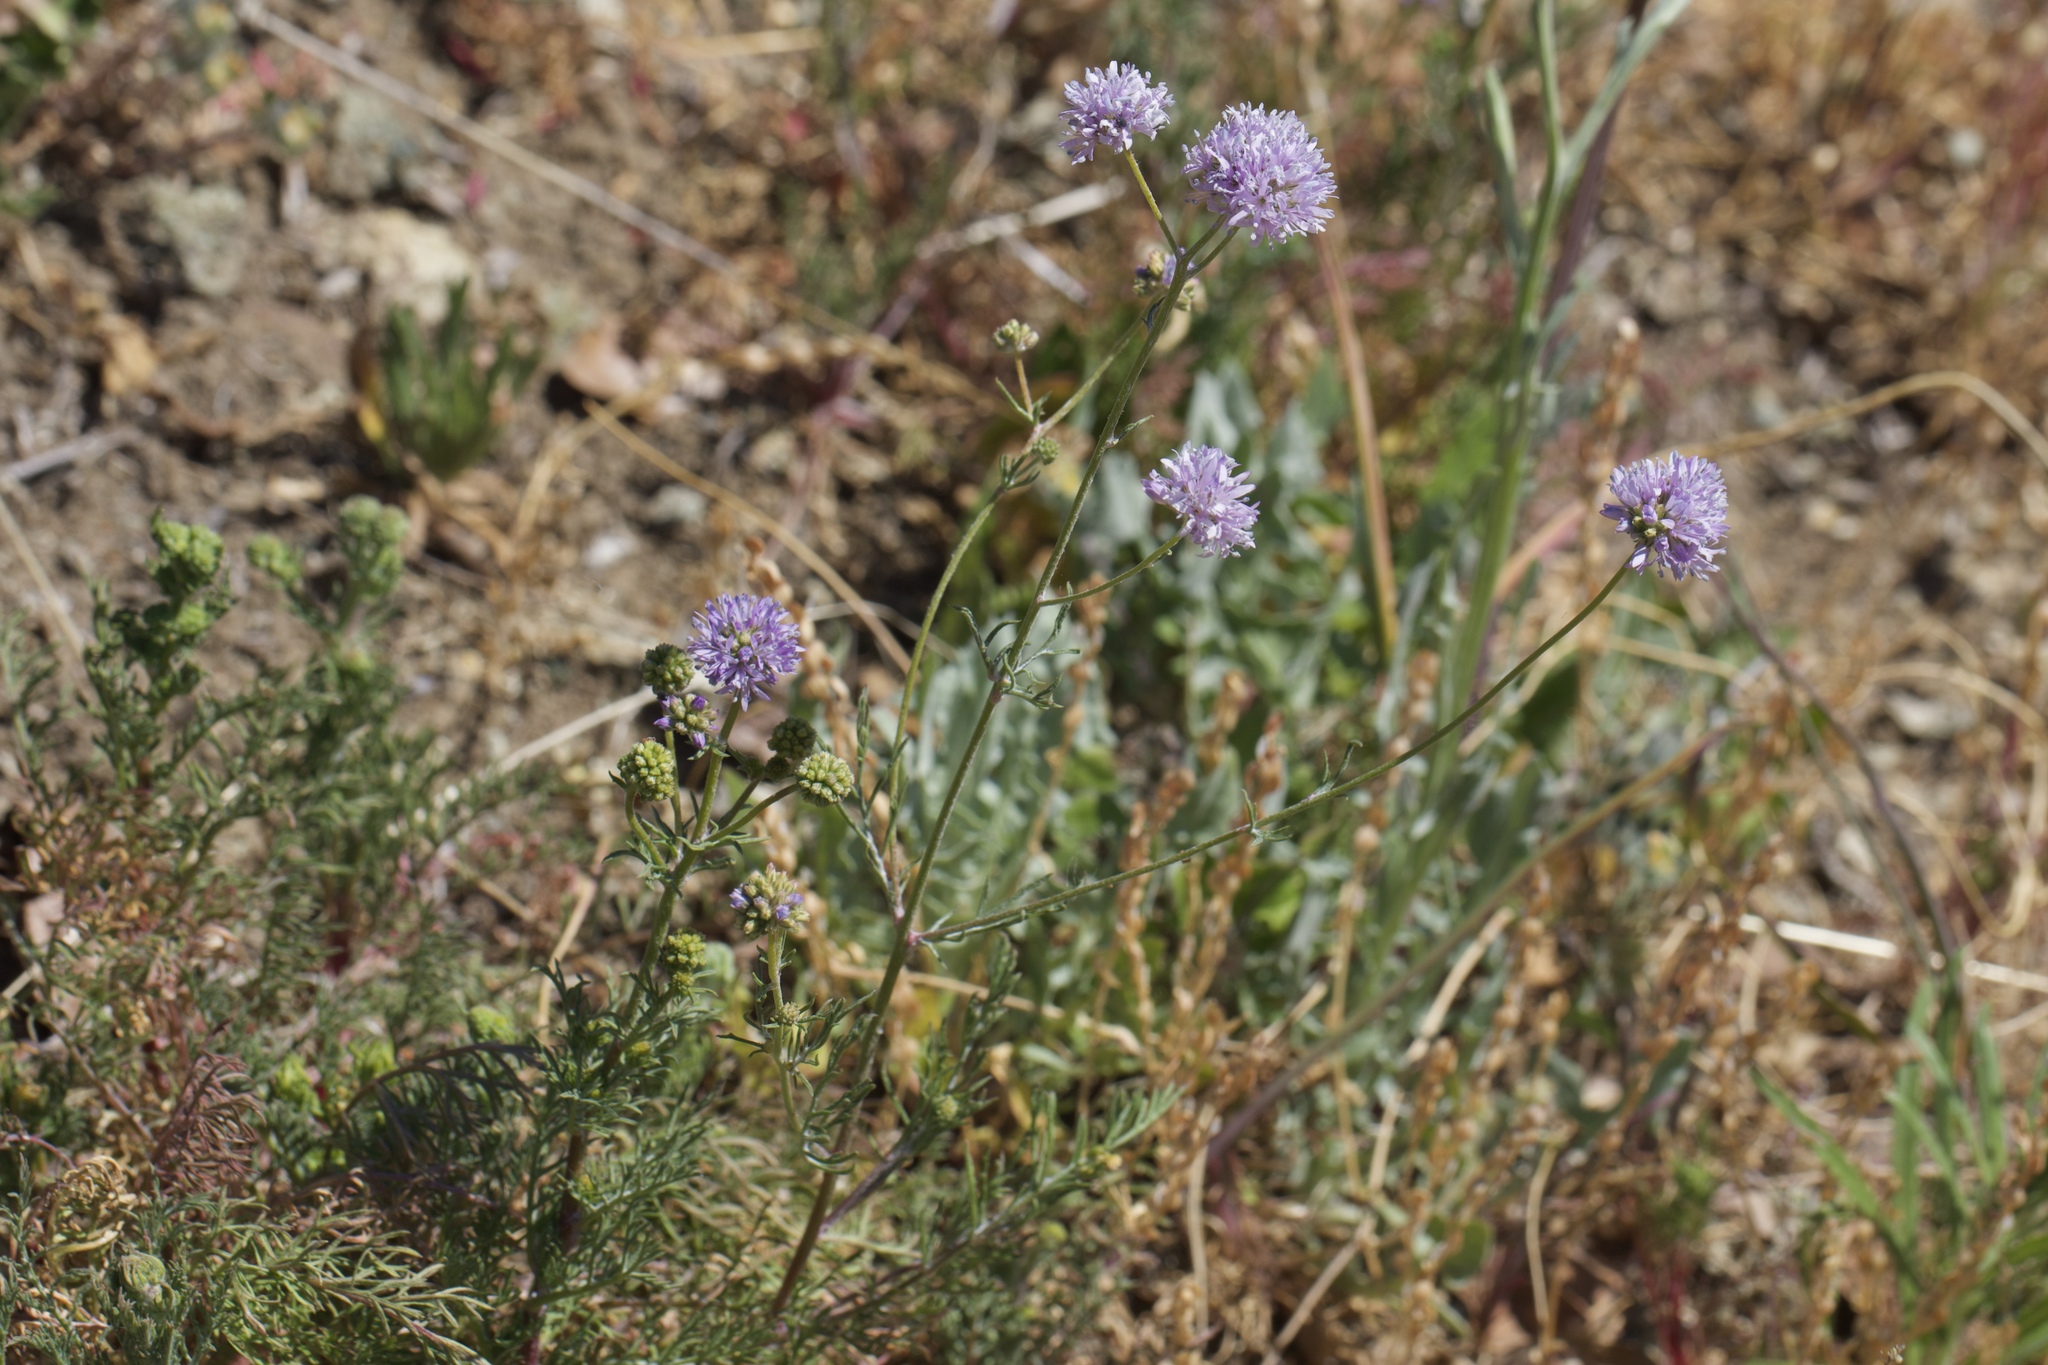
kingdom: Plantae
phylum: Tracheophyta
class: Magnoliopsida
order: Ericales
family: Polemoniaceae
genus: Gilia
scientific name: Gilia capitata
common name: Bluehead gilia
